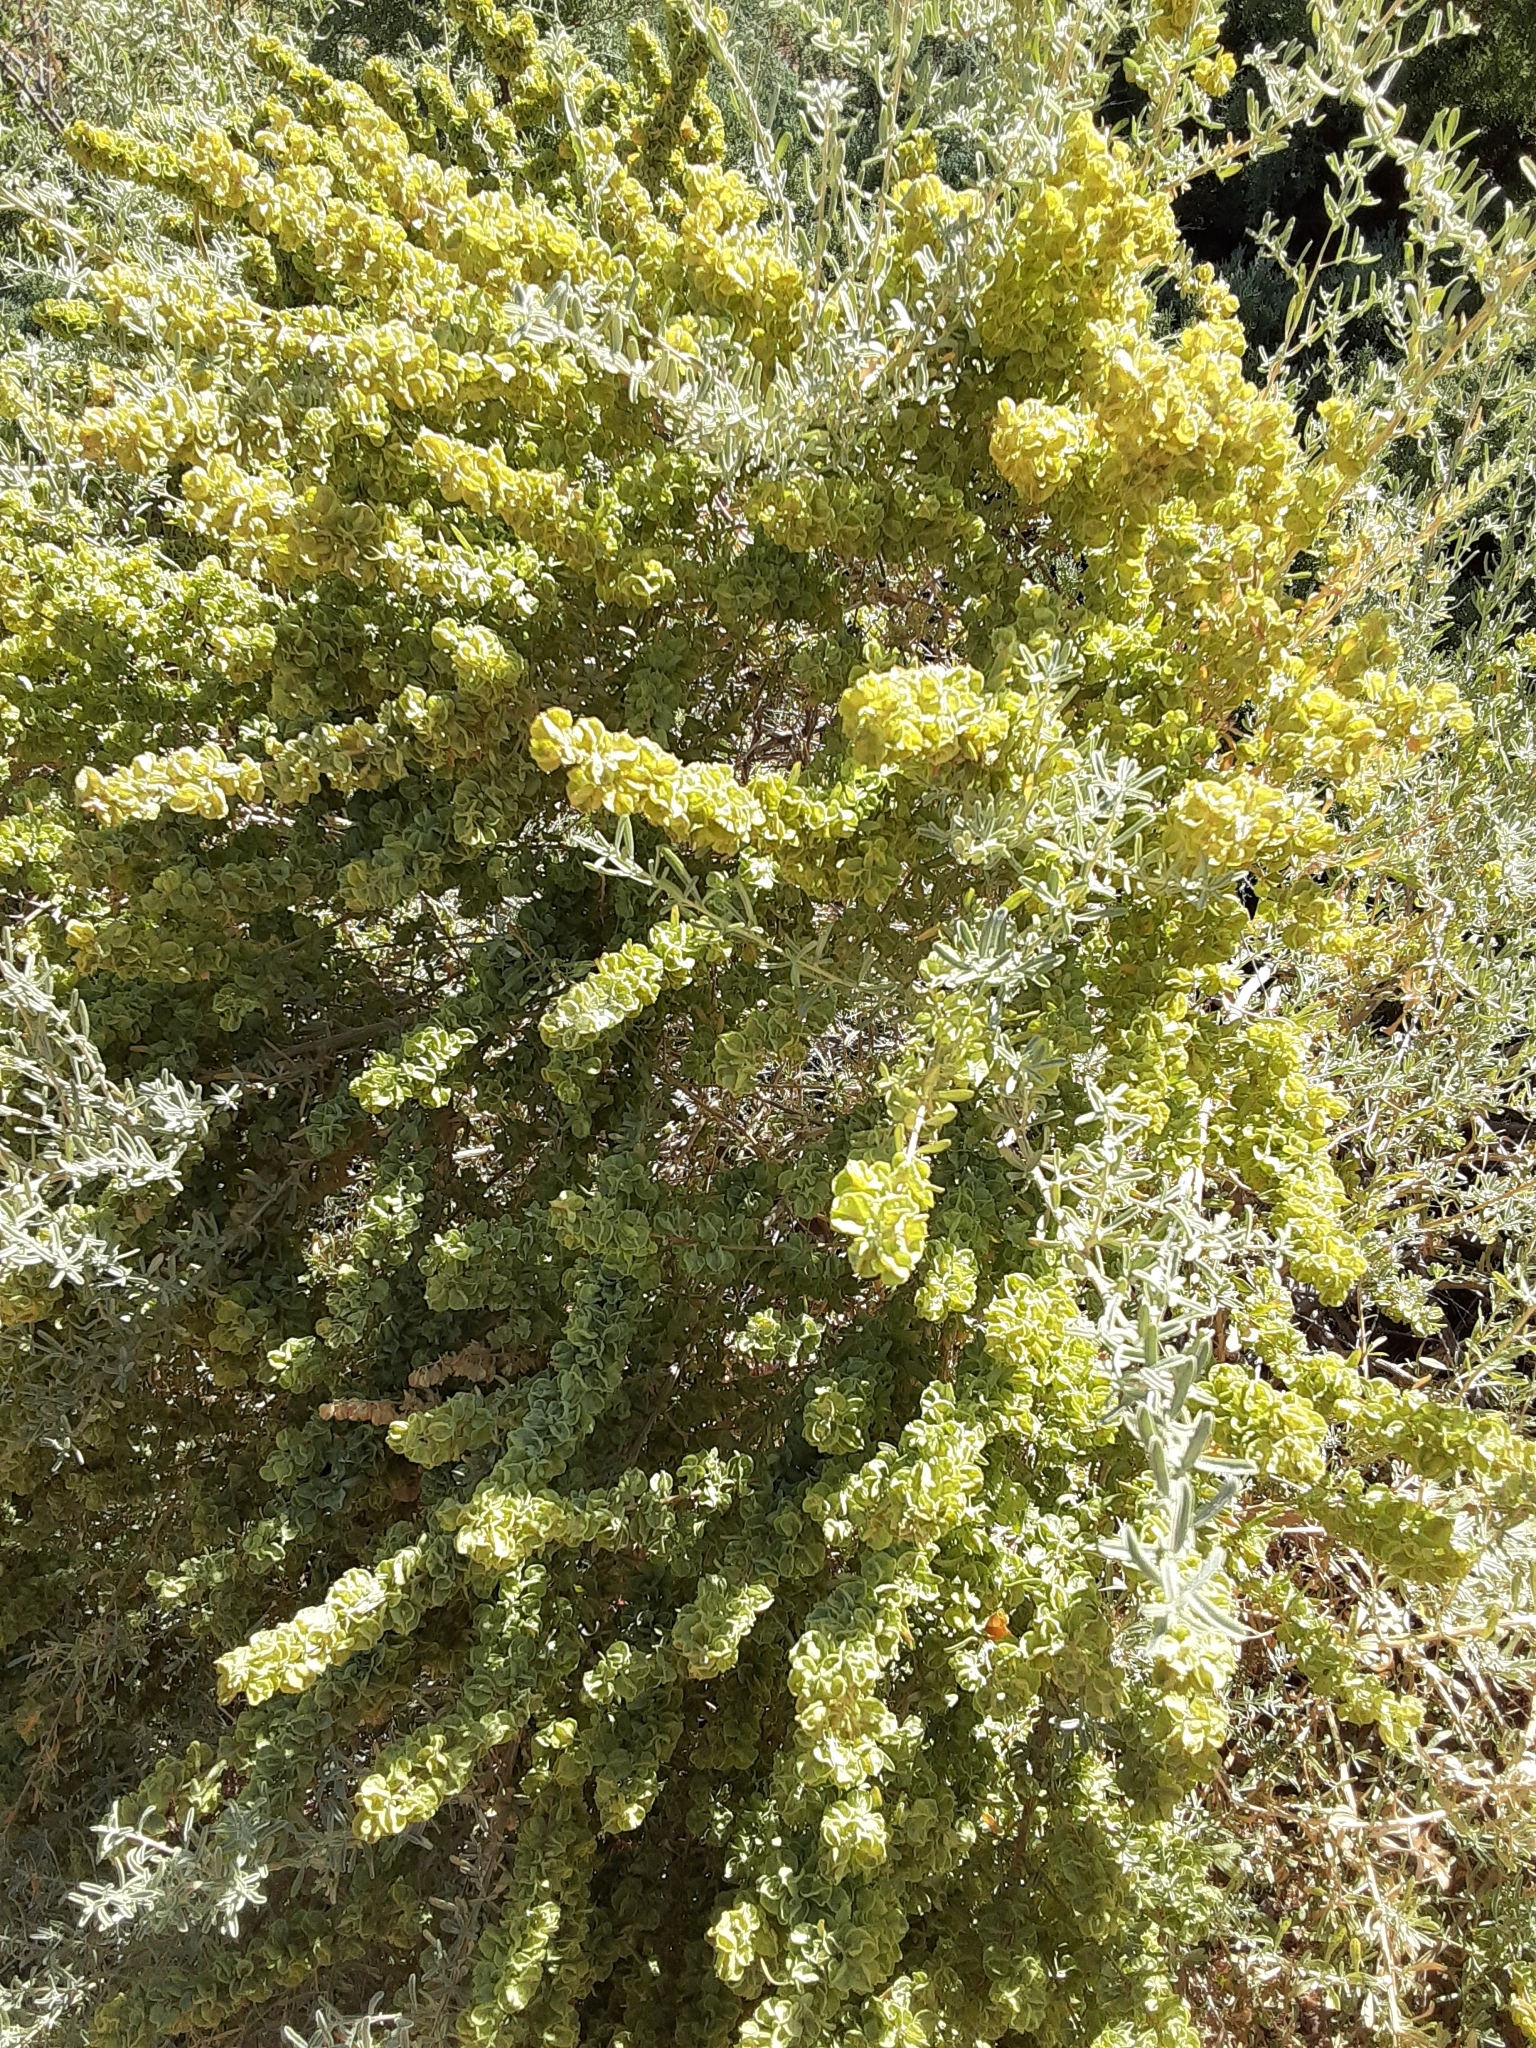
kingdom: Plantae
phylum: Tracheophyta
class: Magnoliopsida
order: Caryophyllales
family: Amaranthaceae
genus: Atriplex
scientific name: Atriplex canescens
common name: Four-wing saltbush
